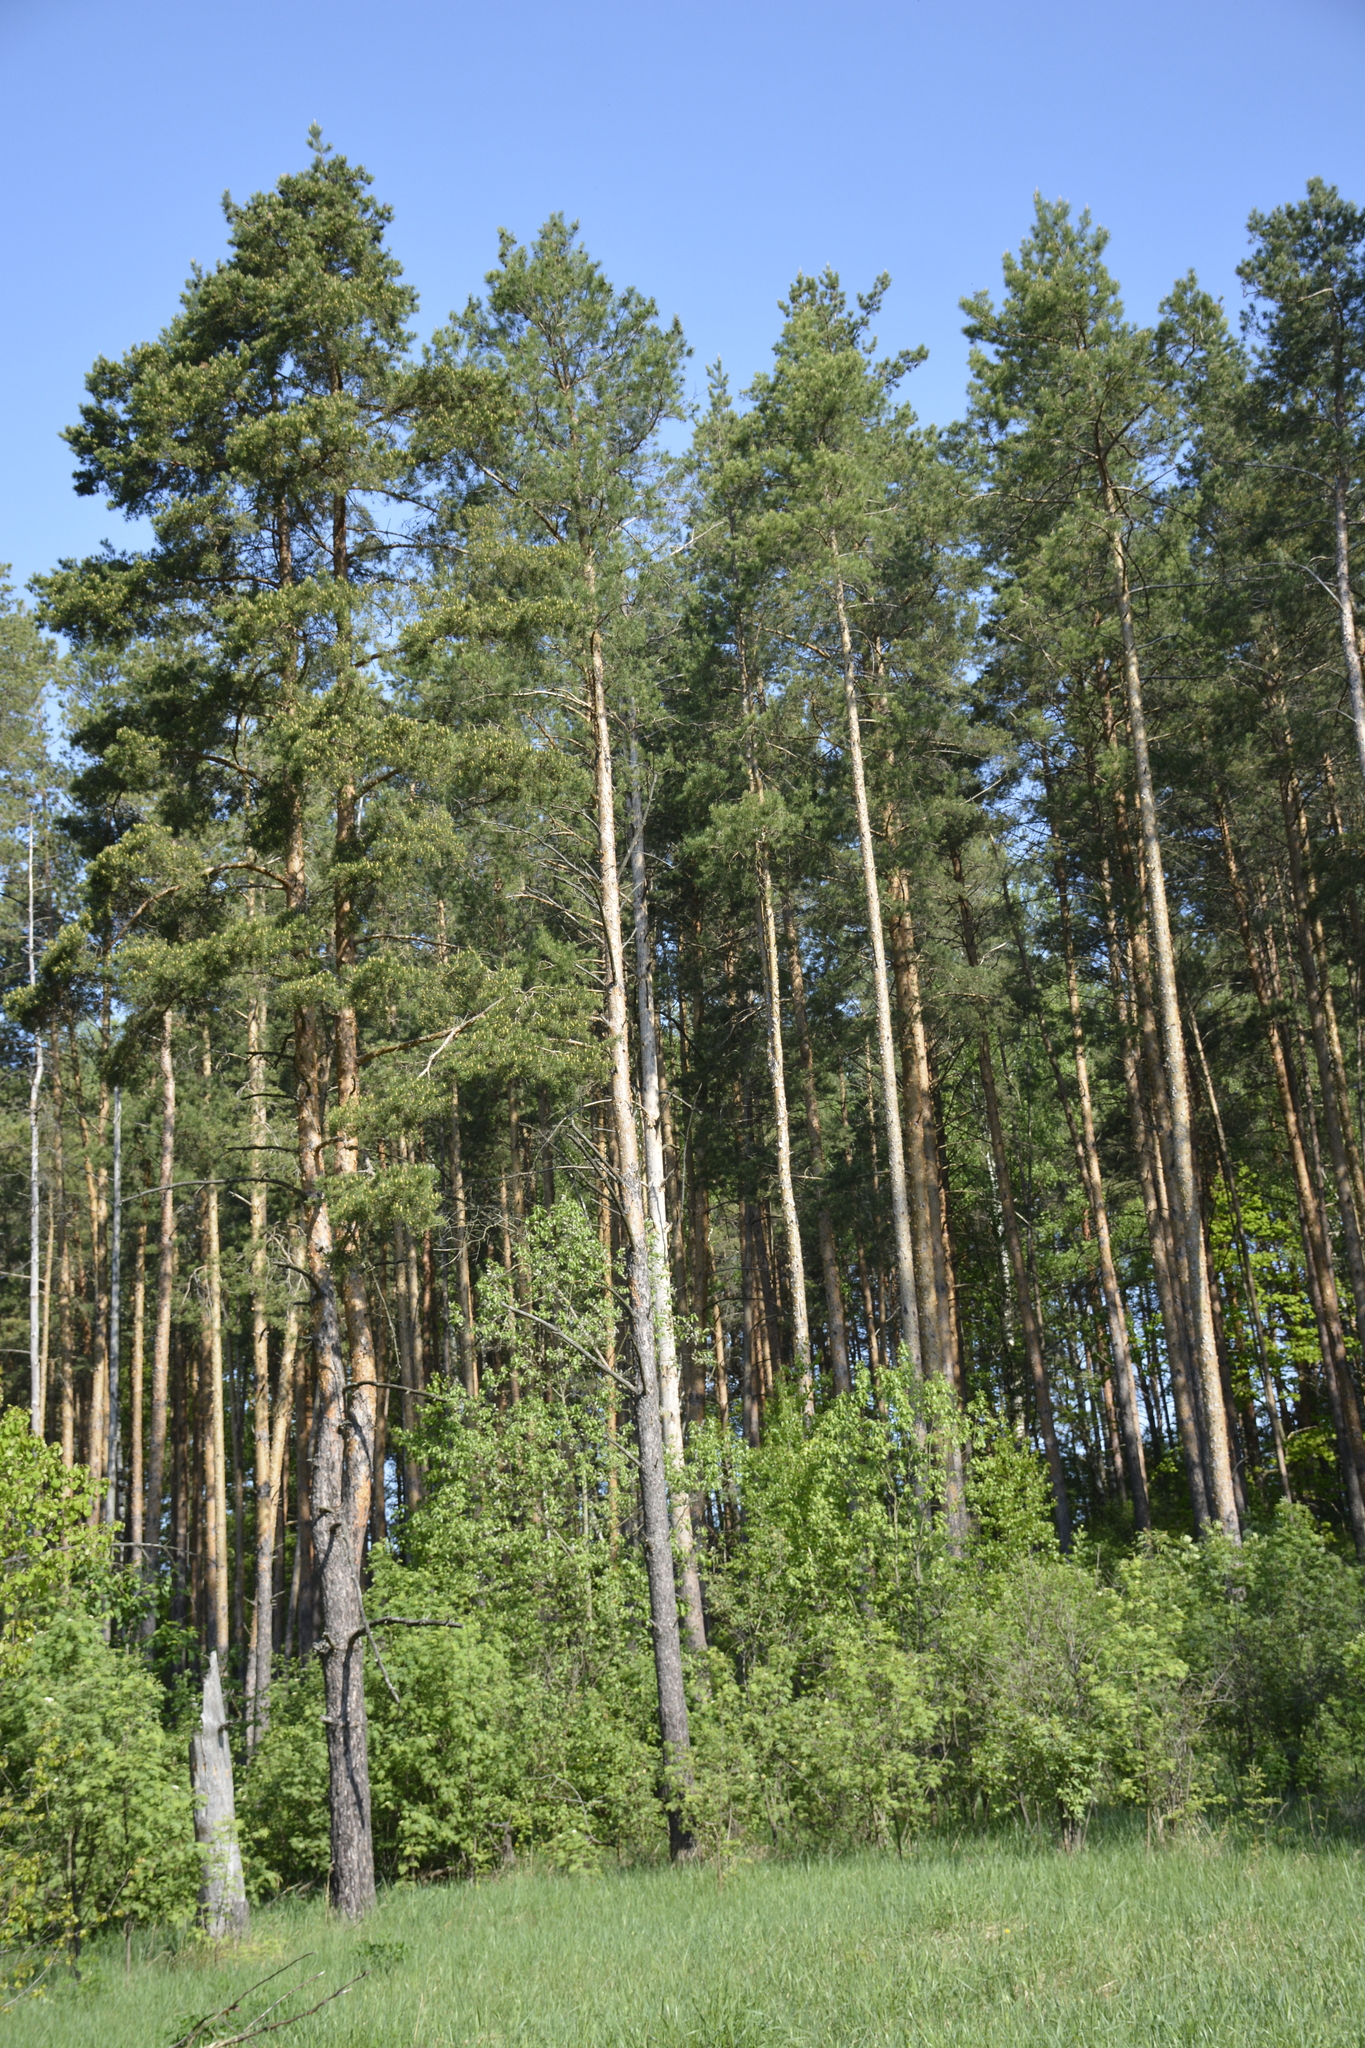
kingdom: Plantae
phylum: Tracheophyta
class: Pinopsida
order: Pinales
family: Pinaceae
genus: Pinus
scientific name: Pinus sylvestris
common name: Scots pine
